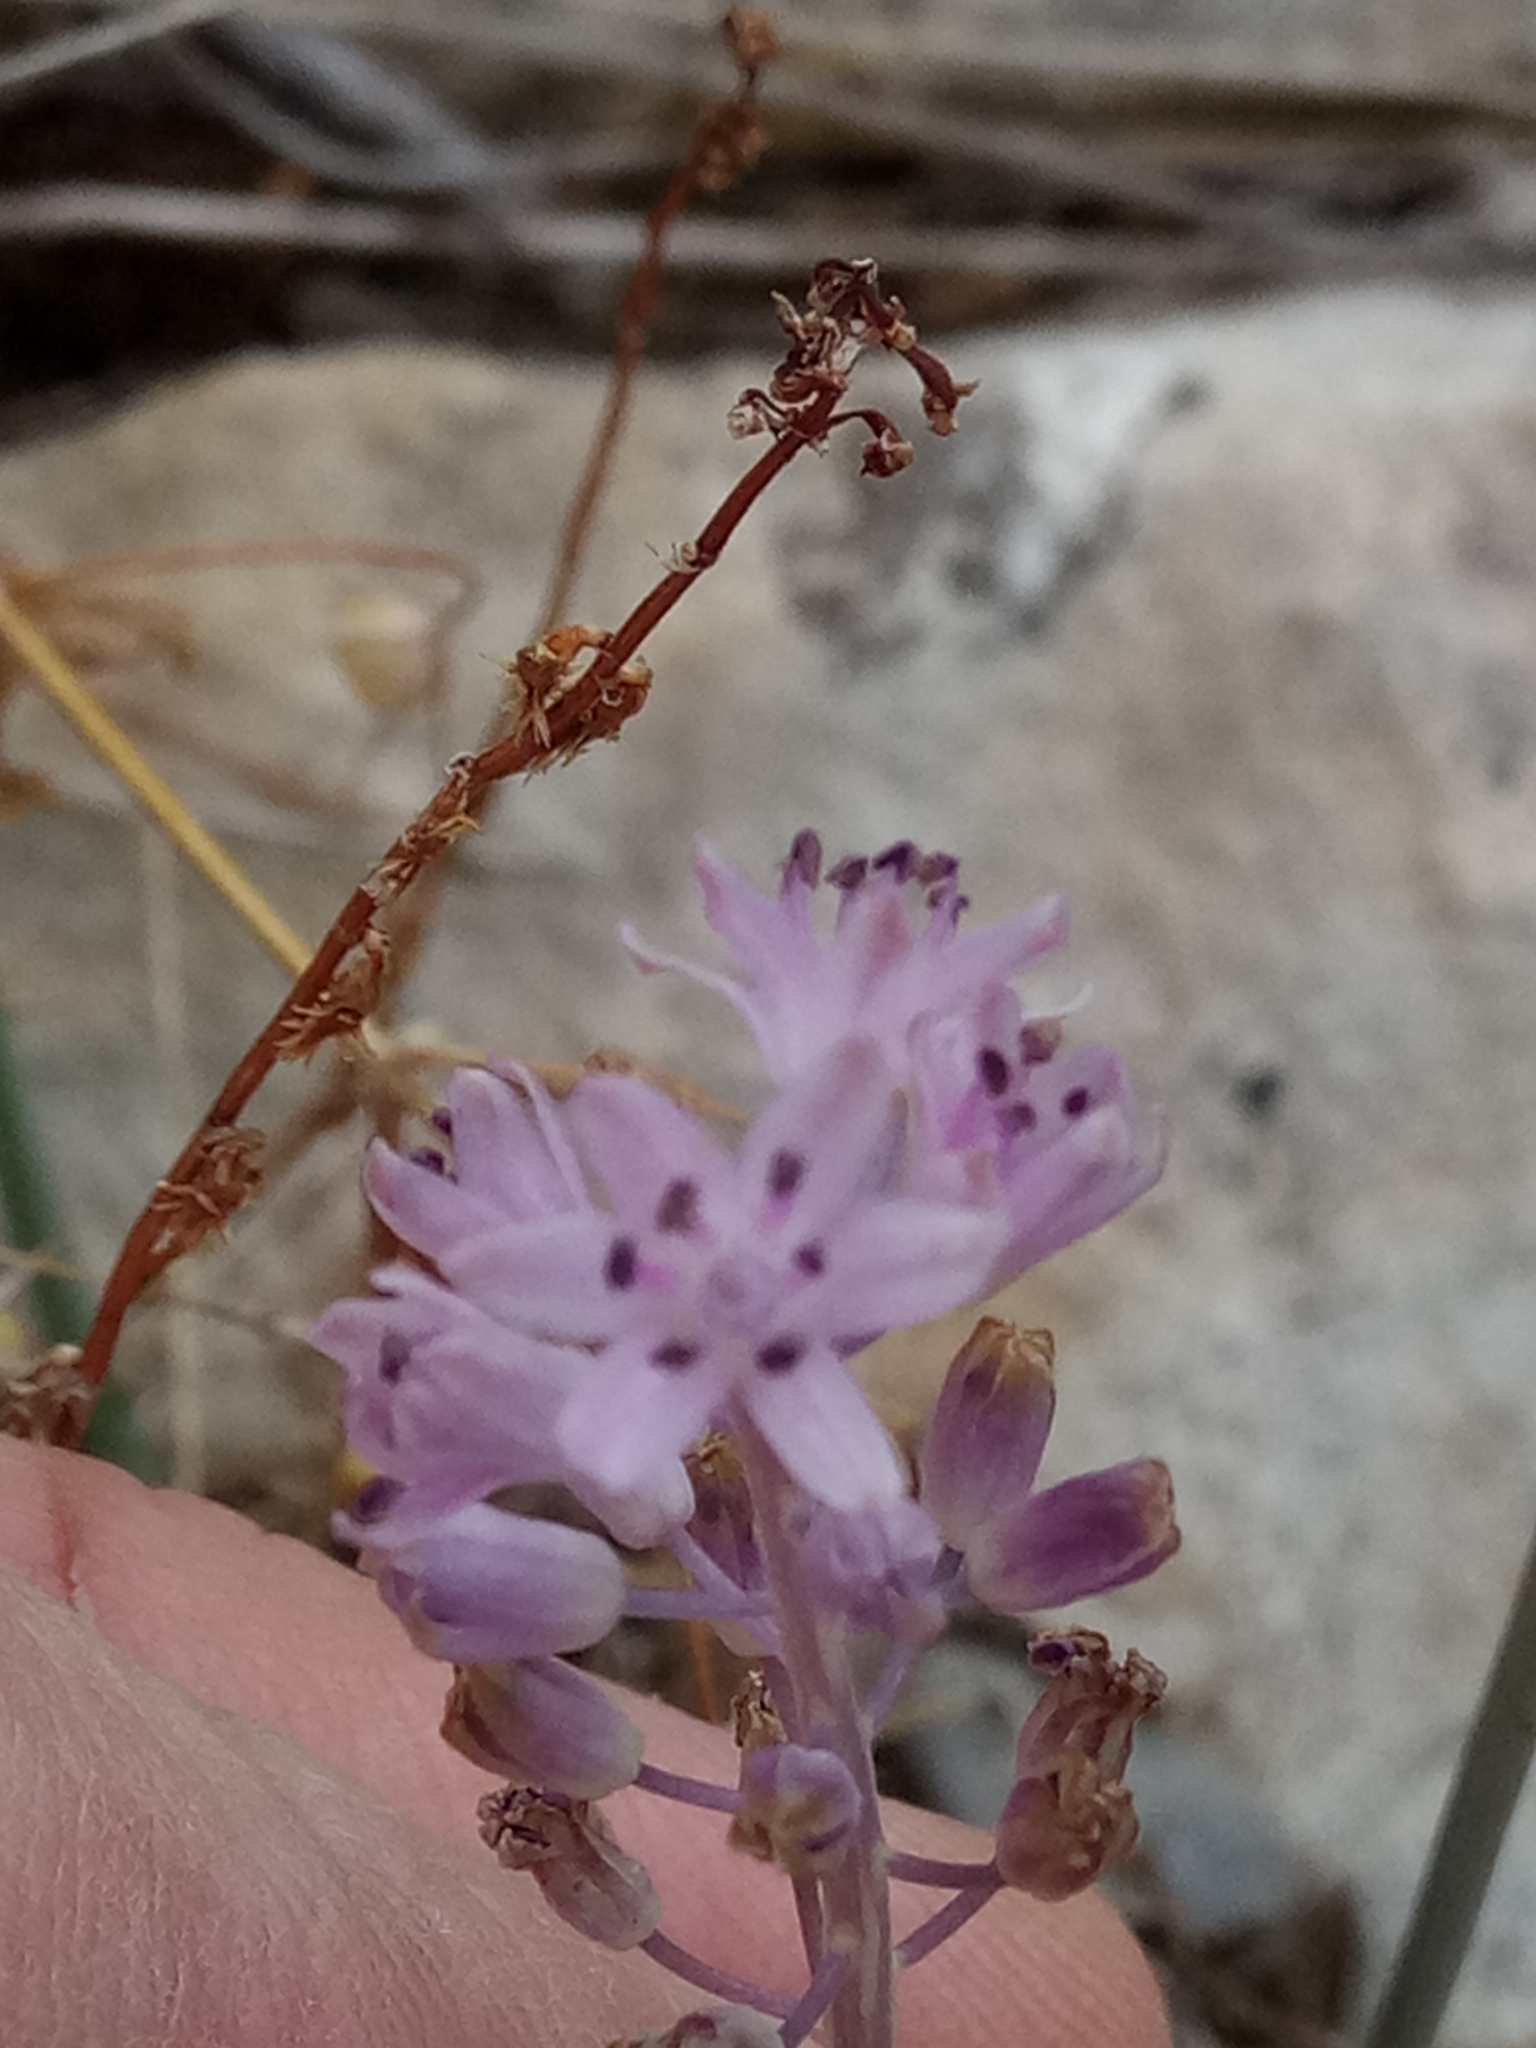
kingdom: Plantae
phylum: Tracheophyta
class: Liliopsida
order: Asparagales
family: Asparagaceae
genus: Prospero
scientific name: Prospero obtusifolium
